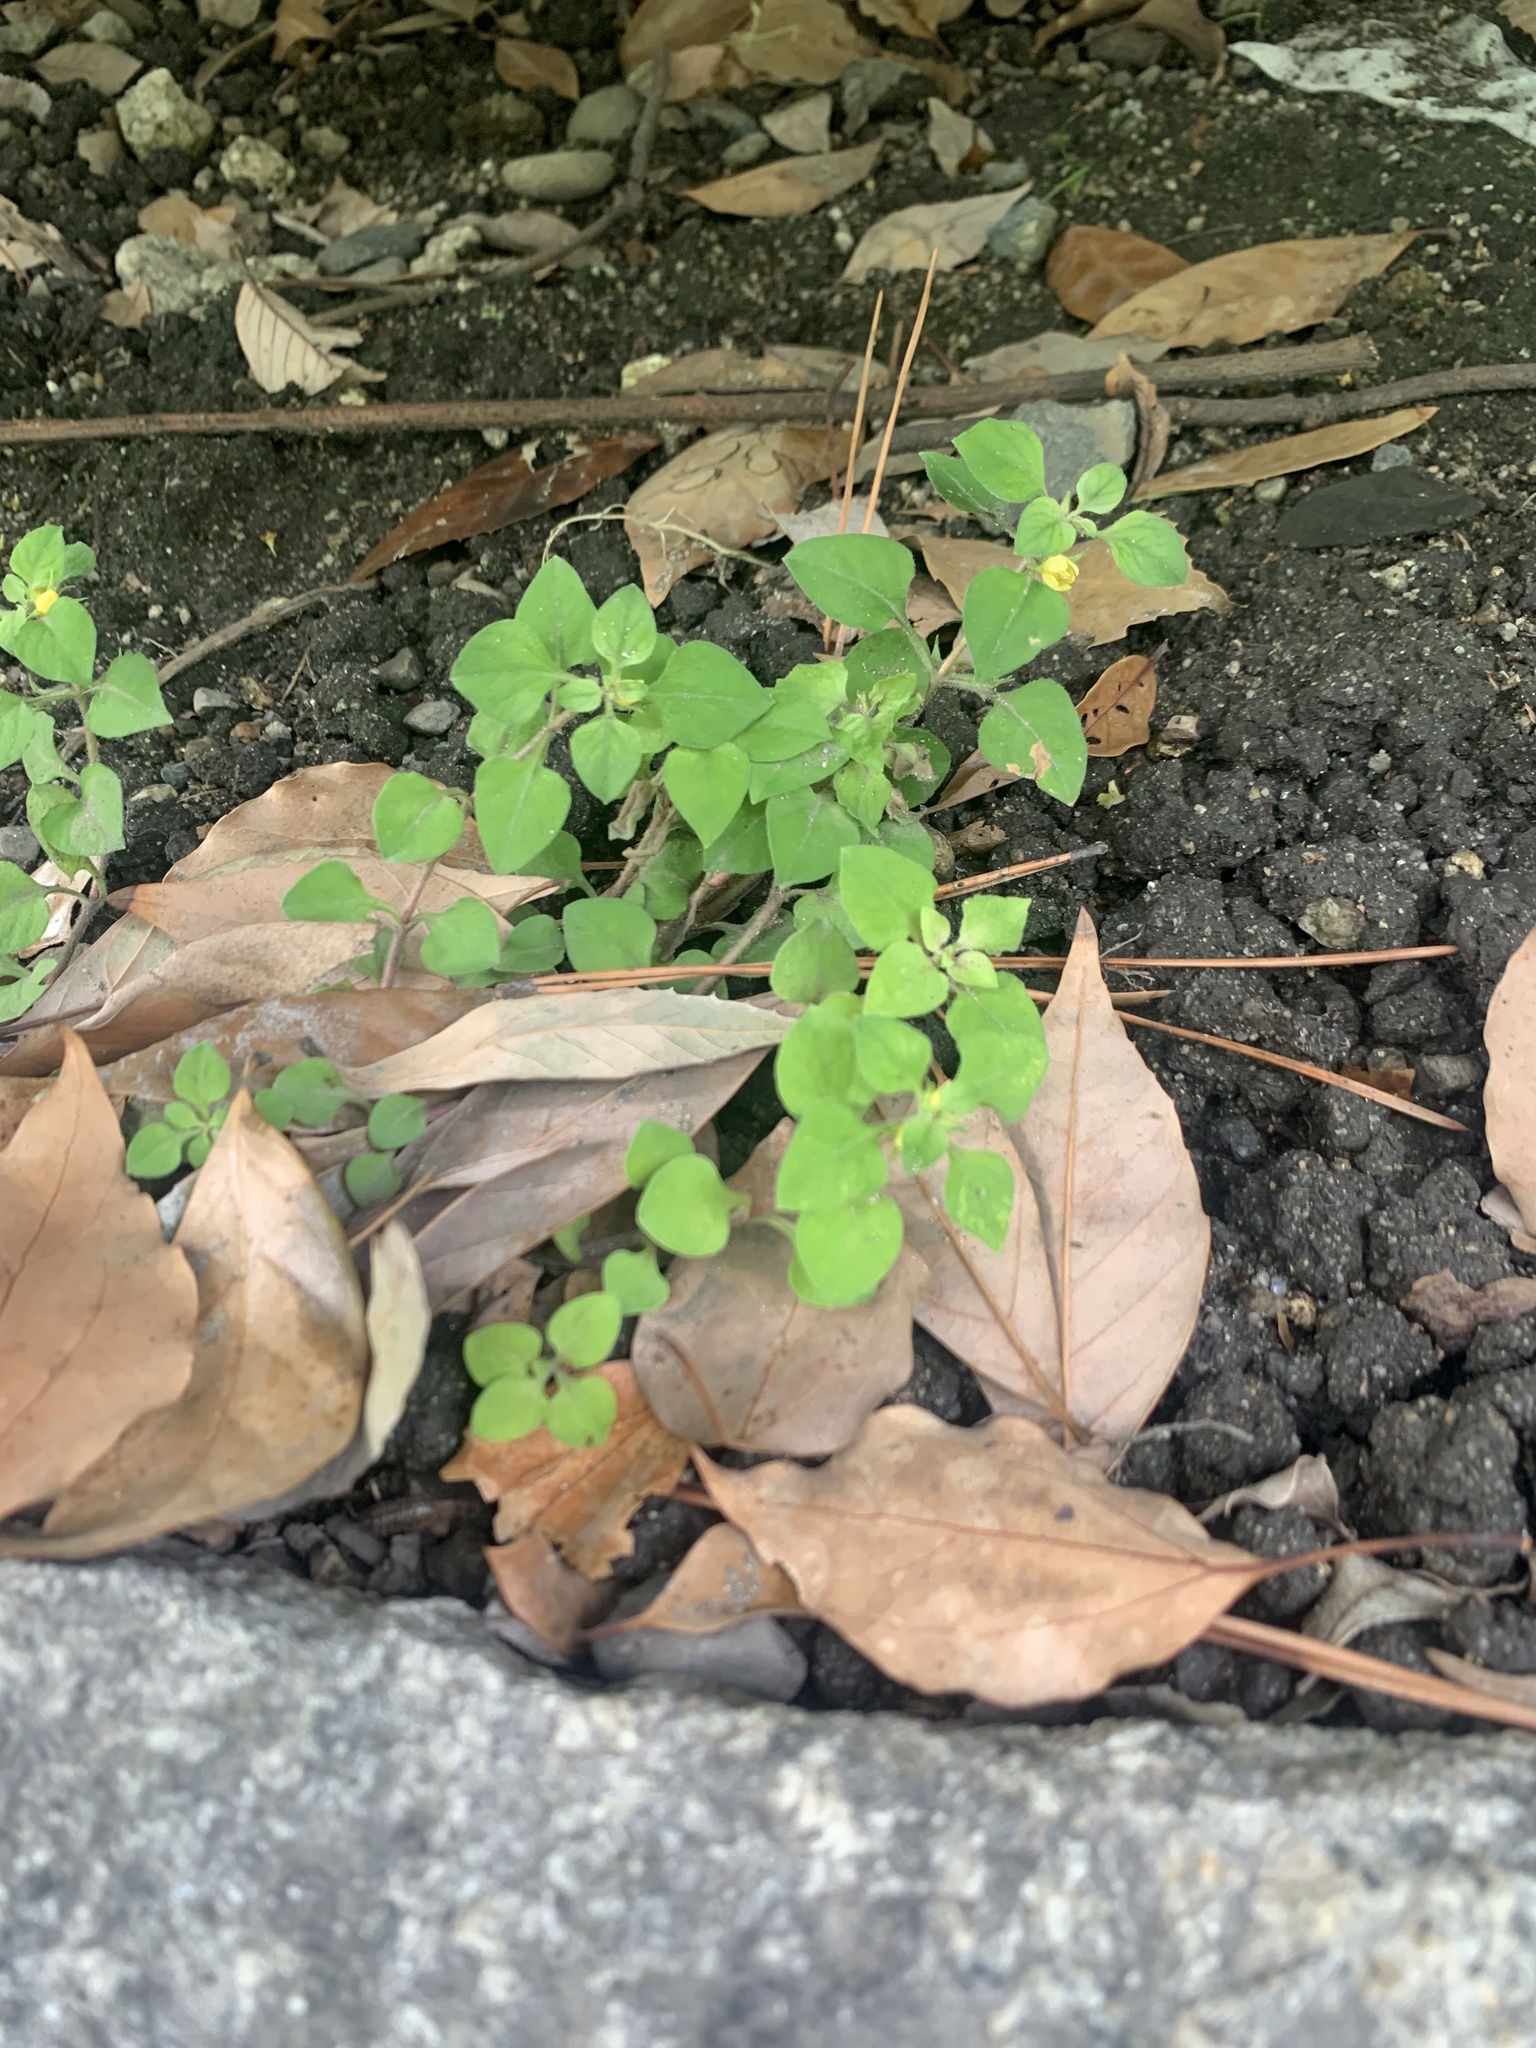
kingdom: Plantae
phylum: Tracheophyta
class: Magnoliopsida
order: Ericales
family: Primulaceae
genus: Lysimachia
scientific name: Lysimachia japonica
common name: Japanese yellow loosestrife
